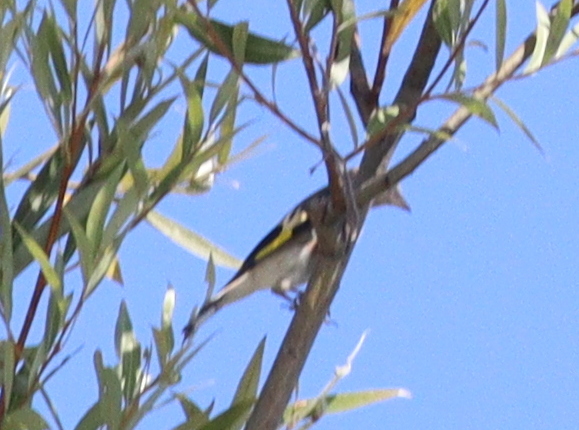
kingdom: Animalia
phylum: Chordata
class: Aves
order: Passeriformes
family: Fringillidae
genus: Carduelis
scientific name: Carduelis carduelis
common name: European goldfinch
